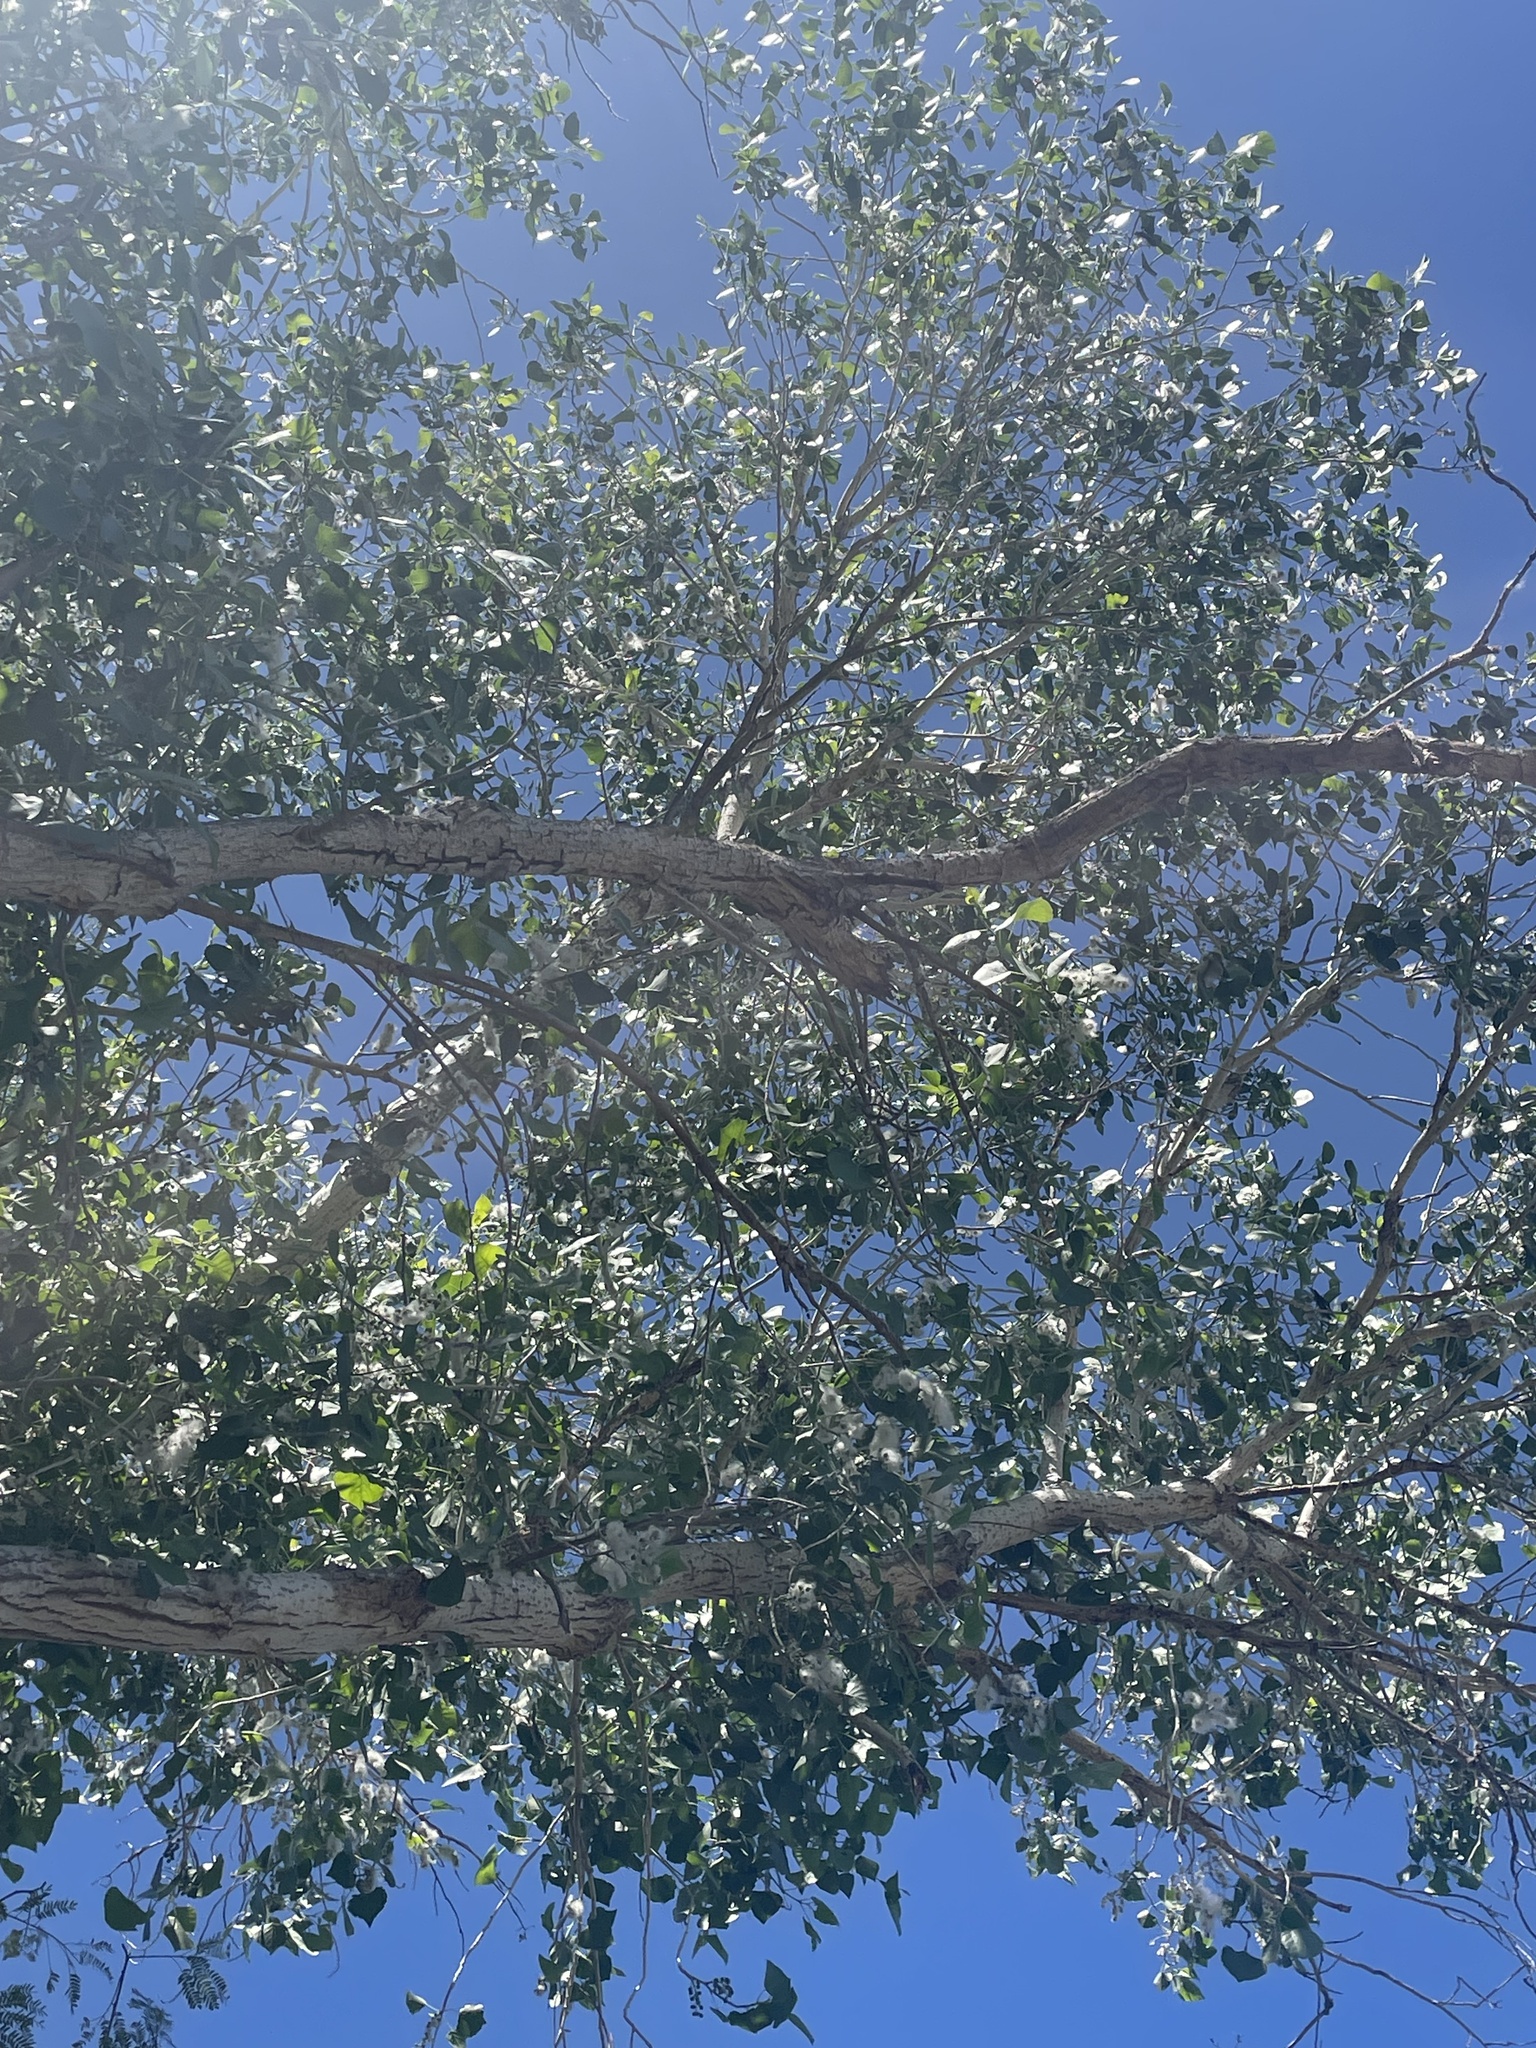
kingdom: Plantae
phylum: Tracheophyta
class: Magnoliopsida
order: Malpighiales
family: Salicaceae
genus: Populus
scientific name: Populus fremontii
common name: Fremont's cottonwood
